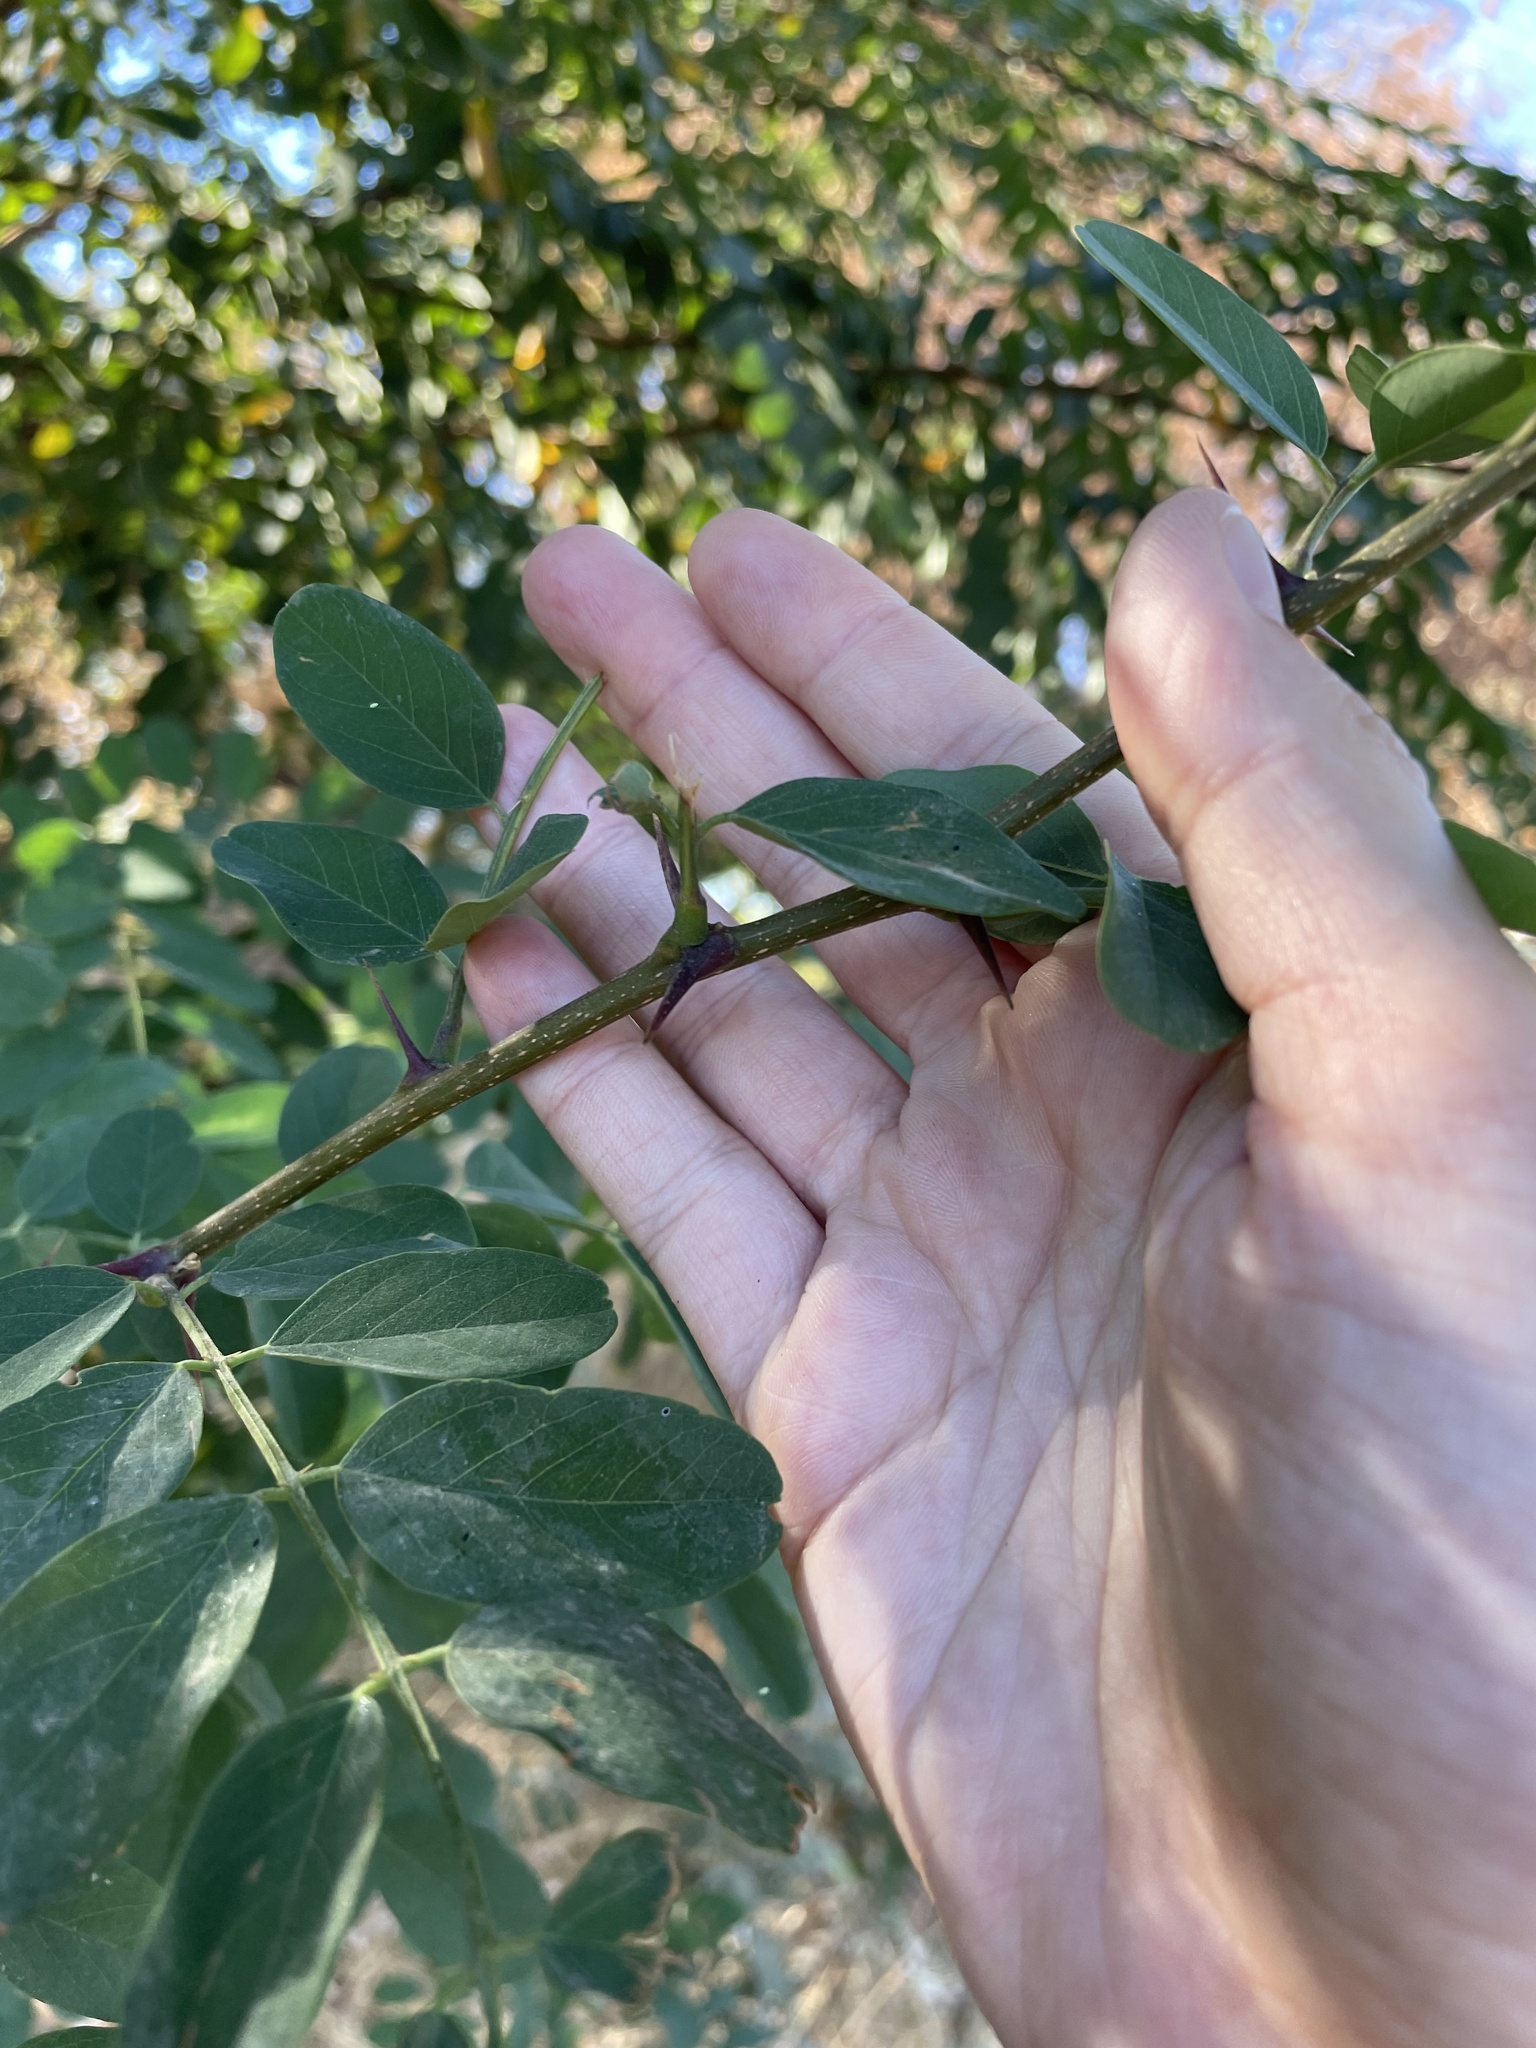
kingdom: Plantae
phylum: Tracheophyta
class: Magnoliopsida
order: Fabales
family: Fabaceae
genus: Robinia
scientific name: Robinia pseudoacacia
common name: Black locust
